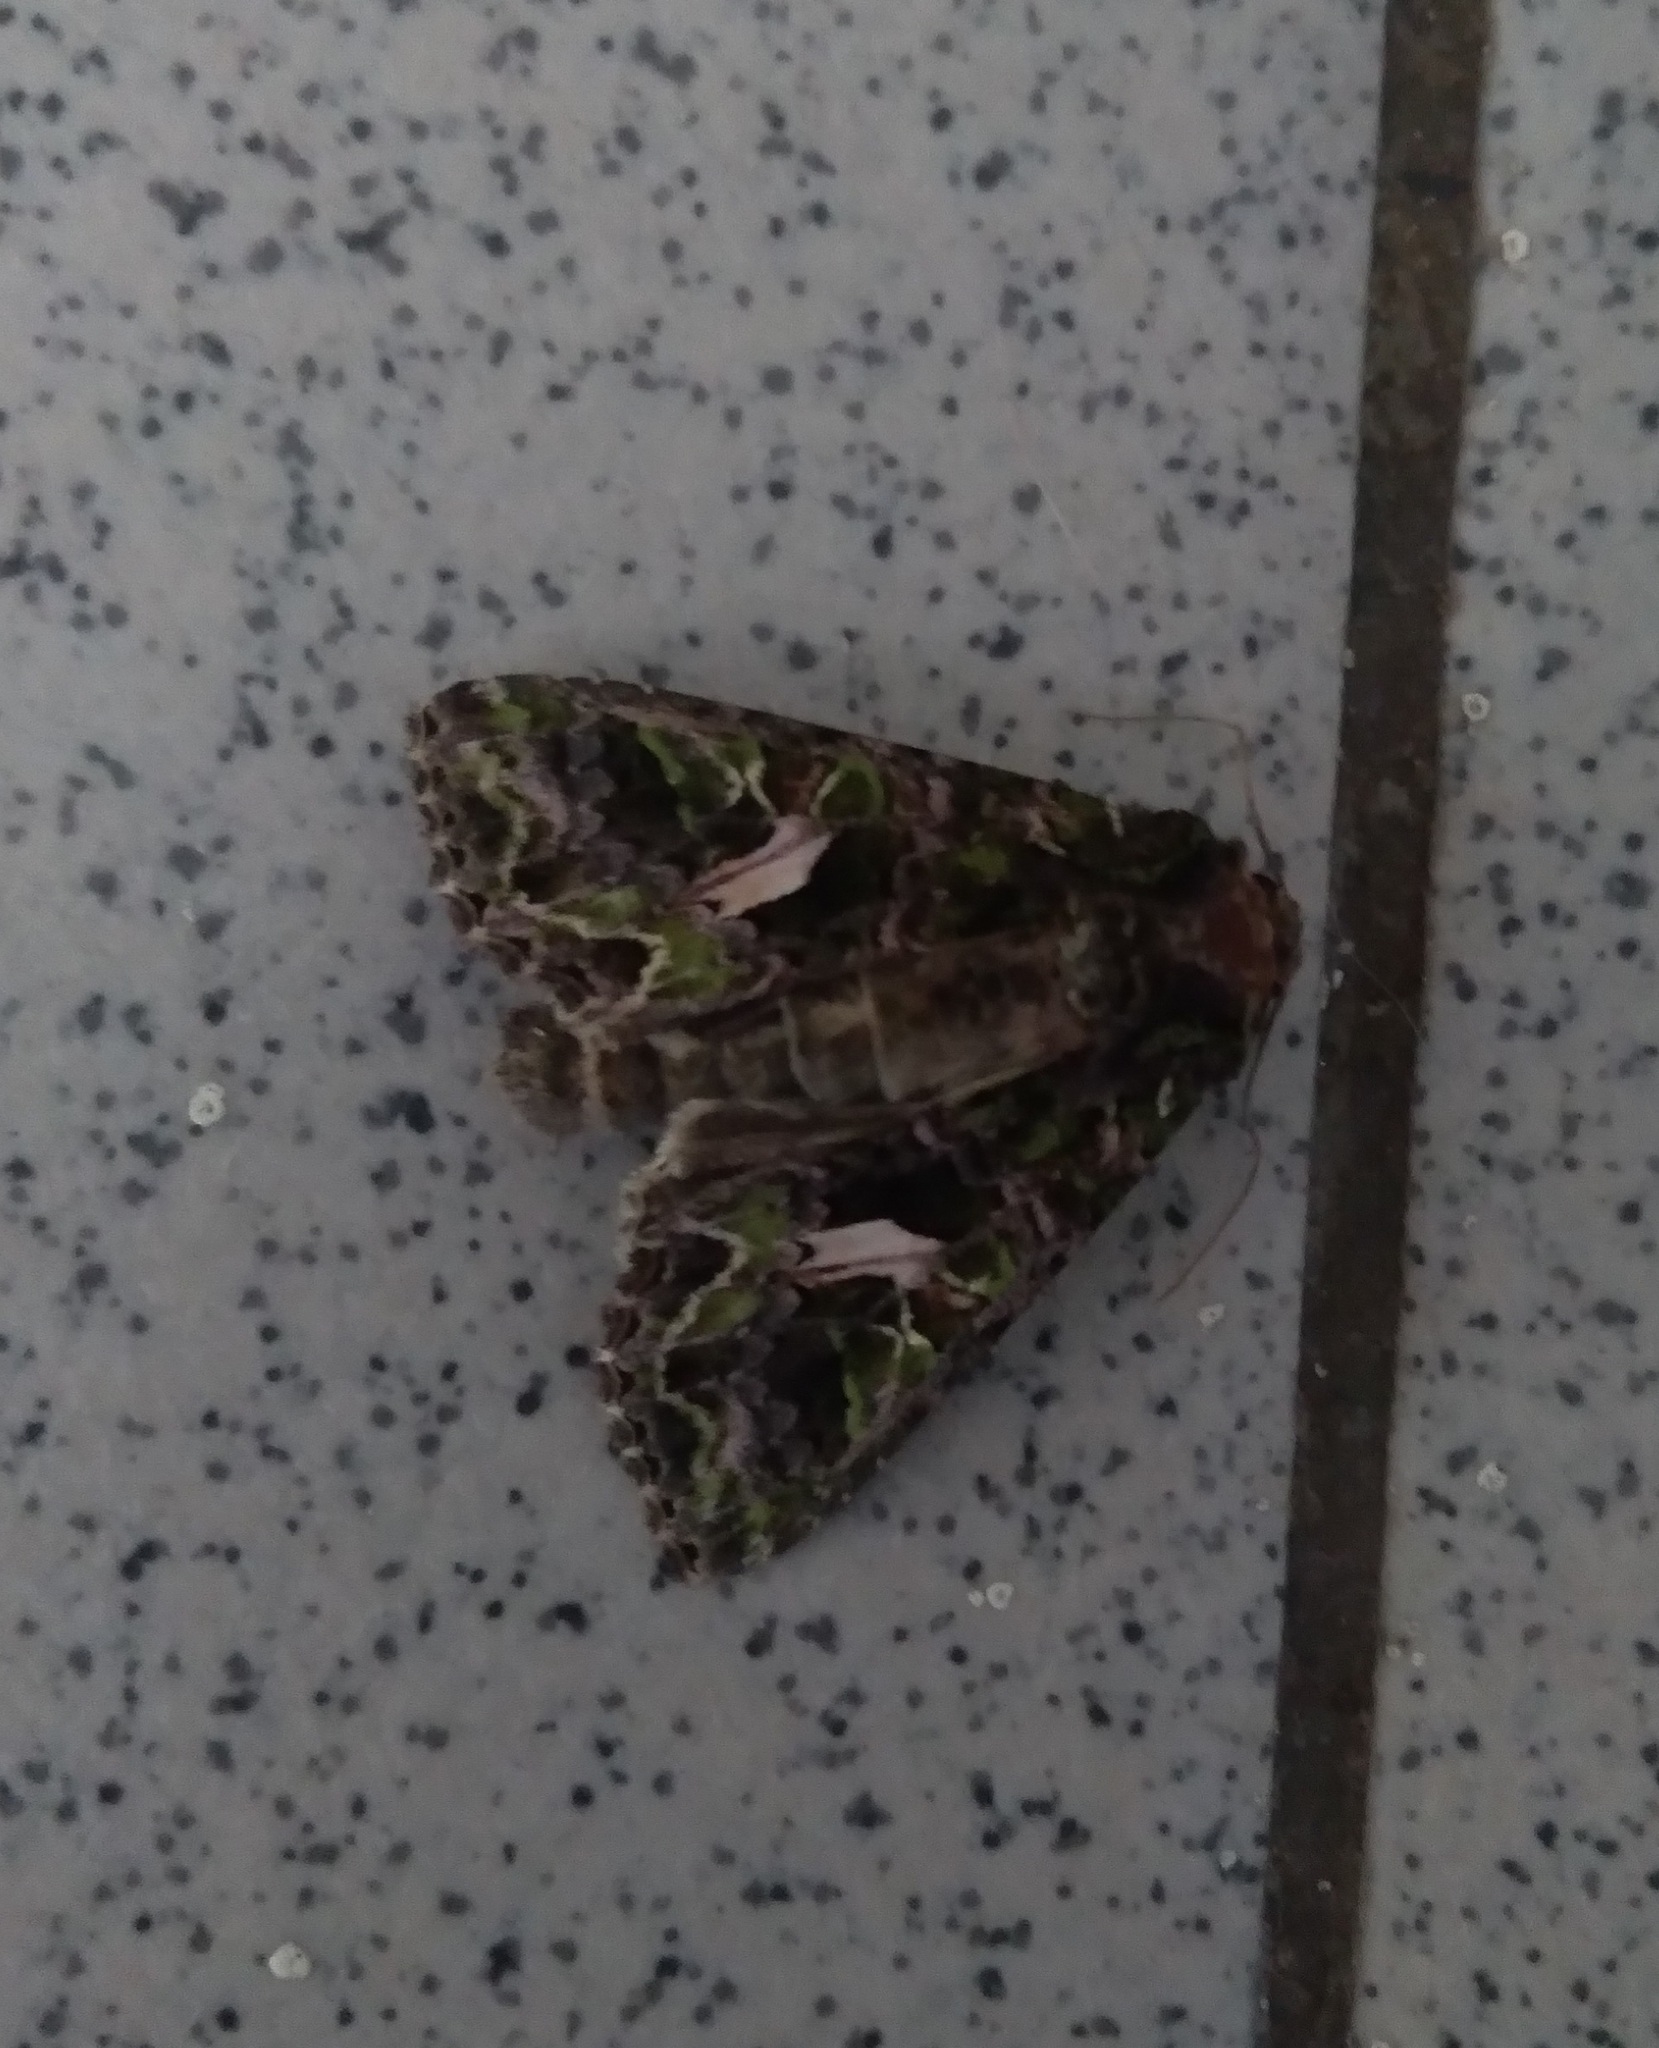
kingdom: Animalia
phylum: Arthropoda
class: Insecta
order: Lepidoptera
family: Noctuidae
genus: Trachea
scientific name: Trachea atriplicis
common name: Orache moth
